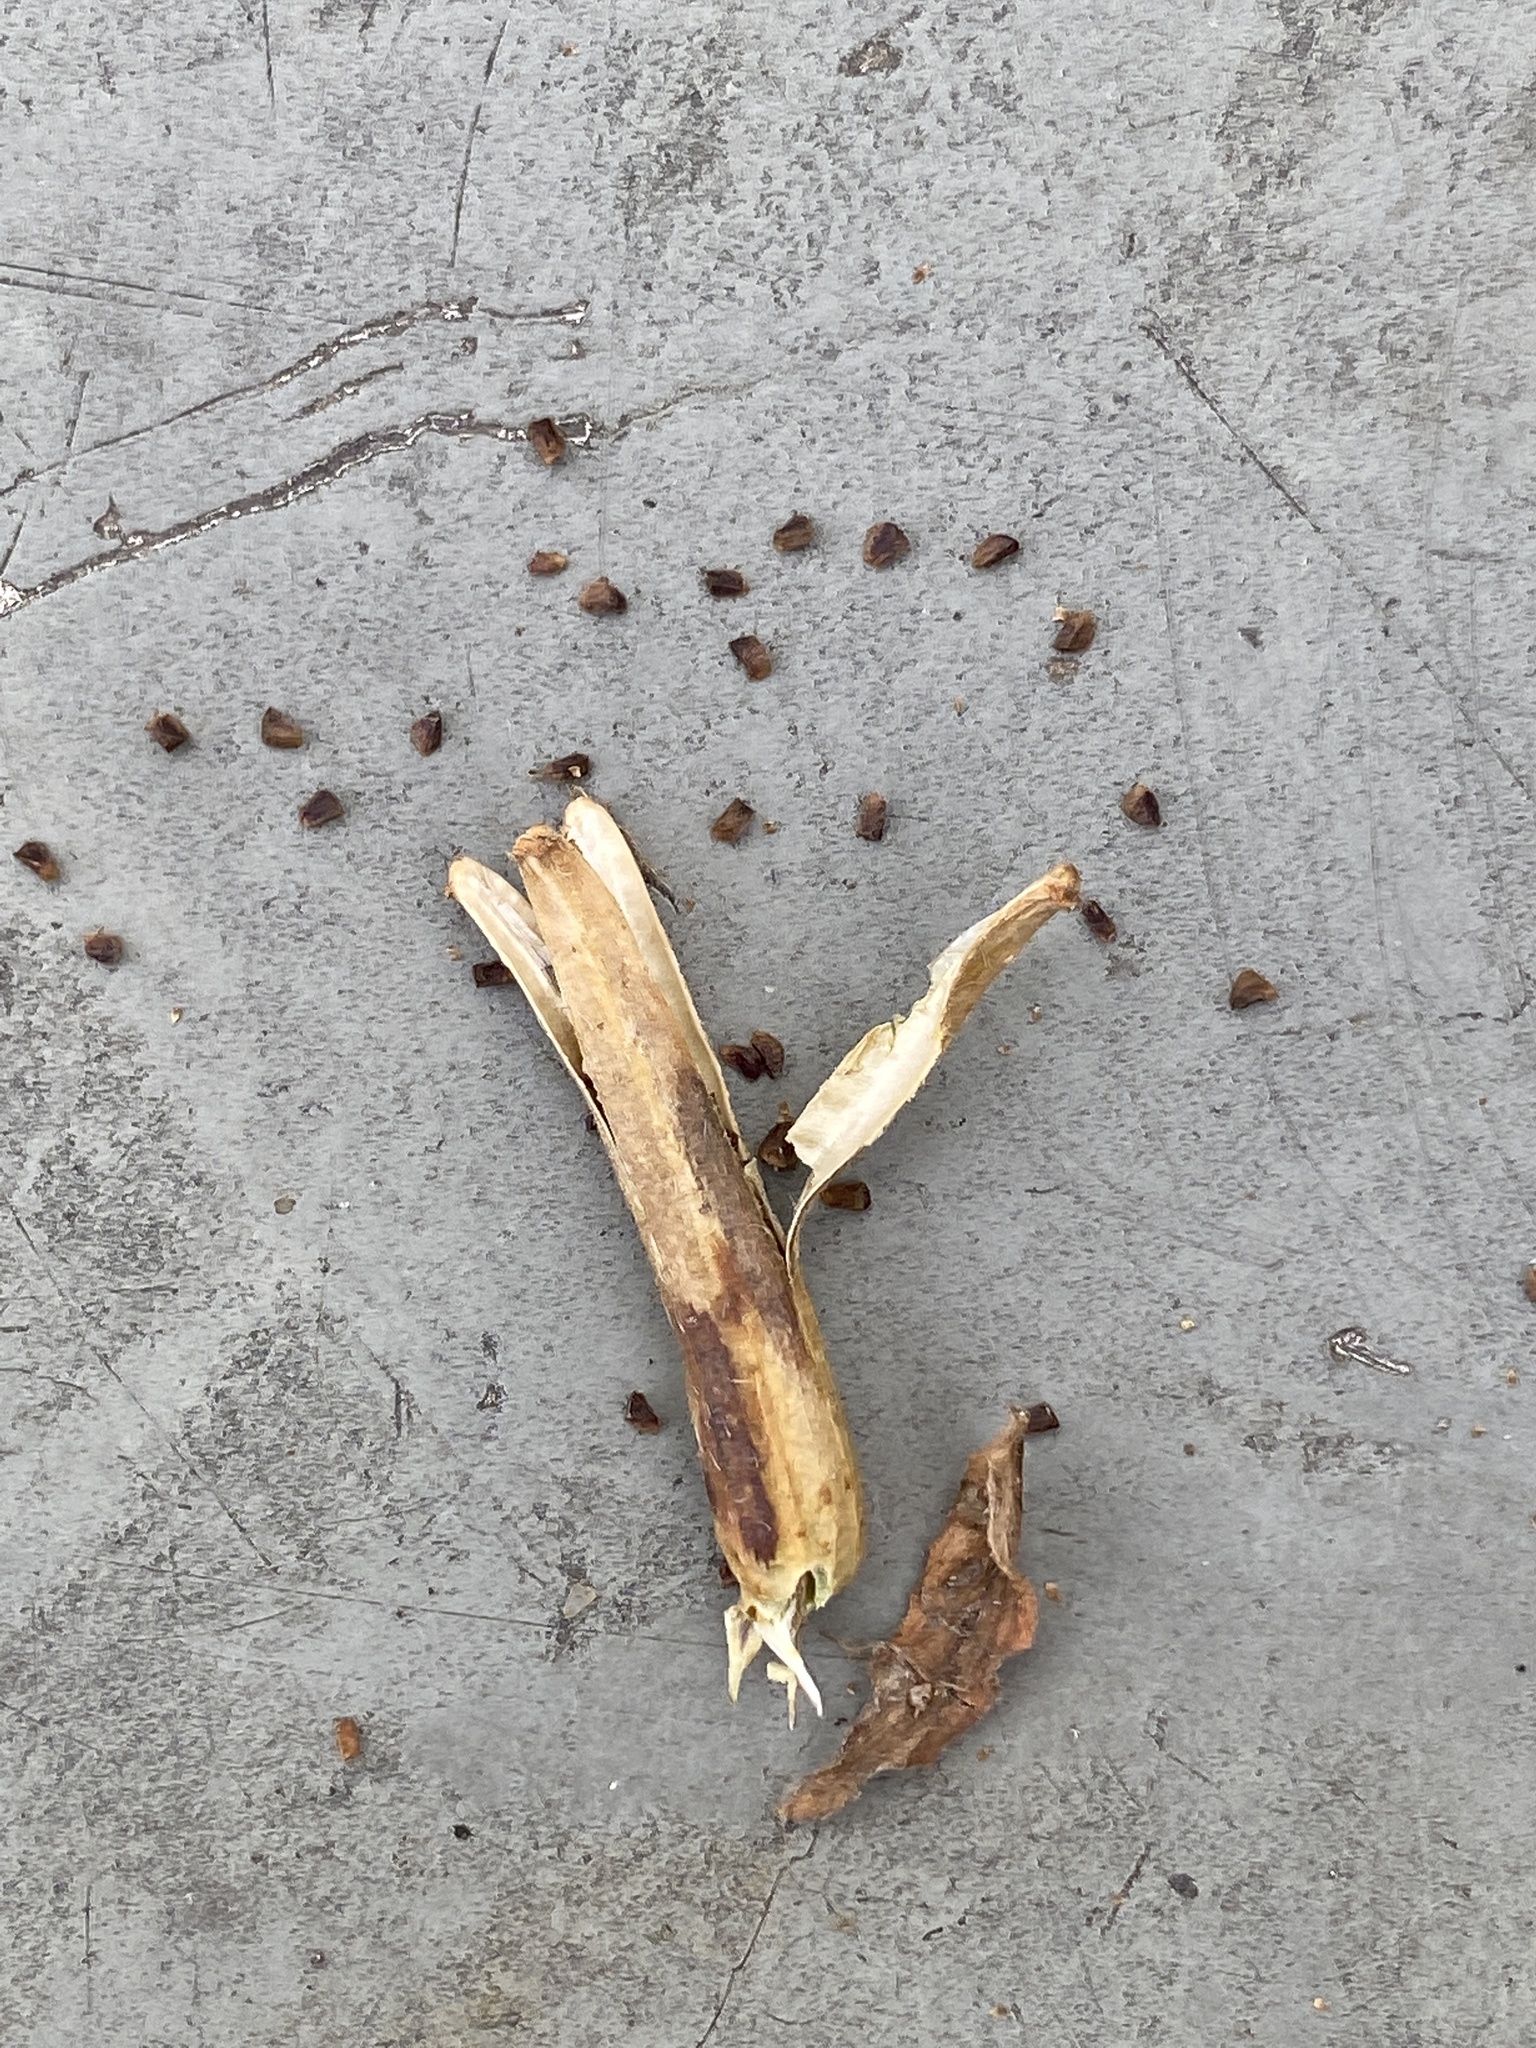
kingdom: Plantae
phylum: Tracheophyta
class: Magnoliopsida
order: Myrtales
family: Onagraceae
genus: Oenothera
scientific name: Oenothera biennis
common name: Common evening-primrose
